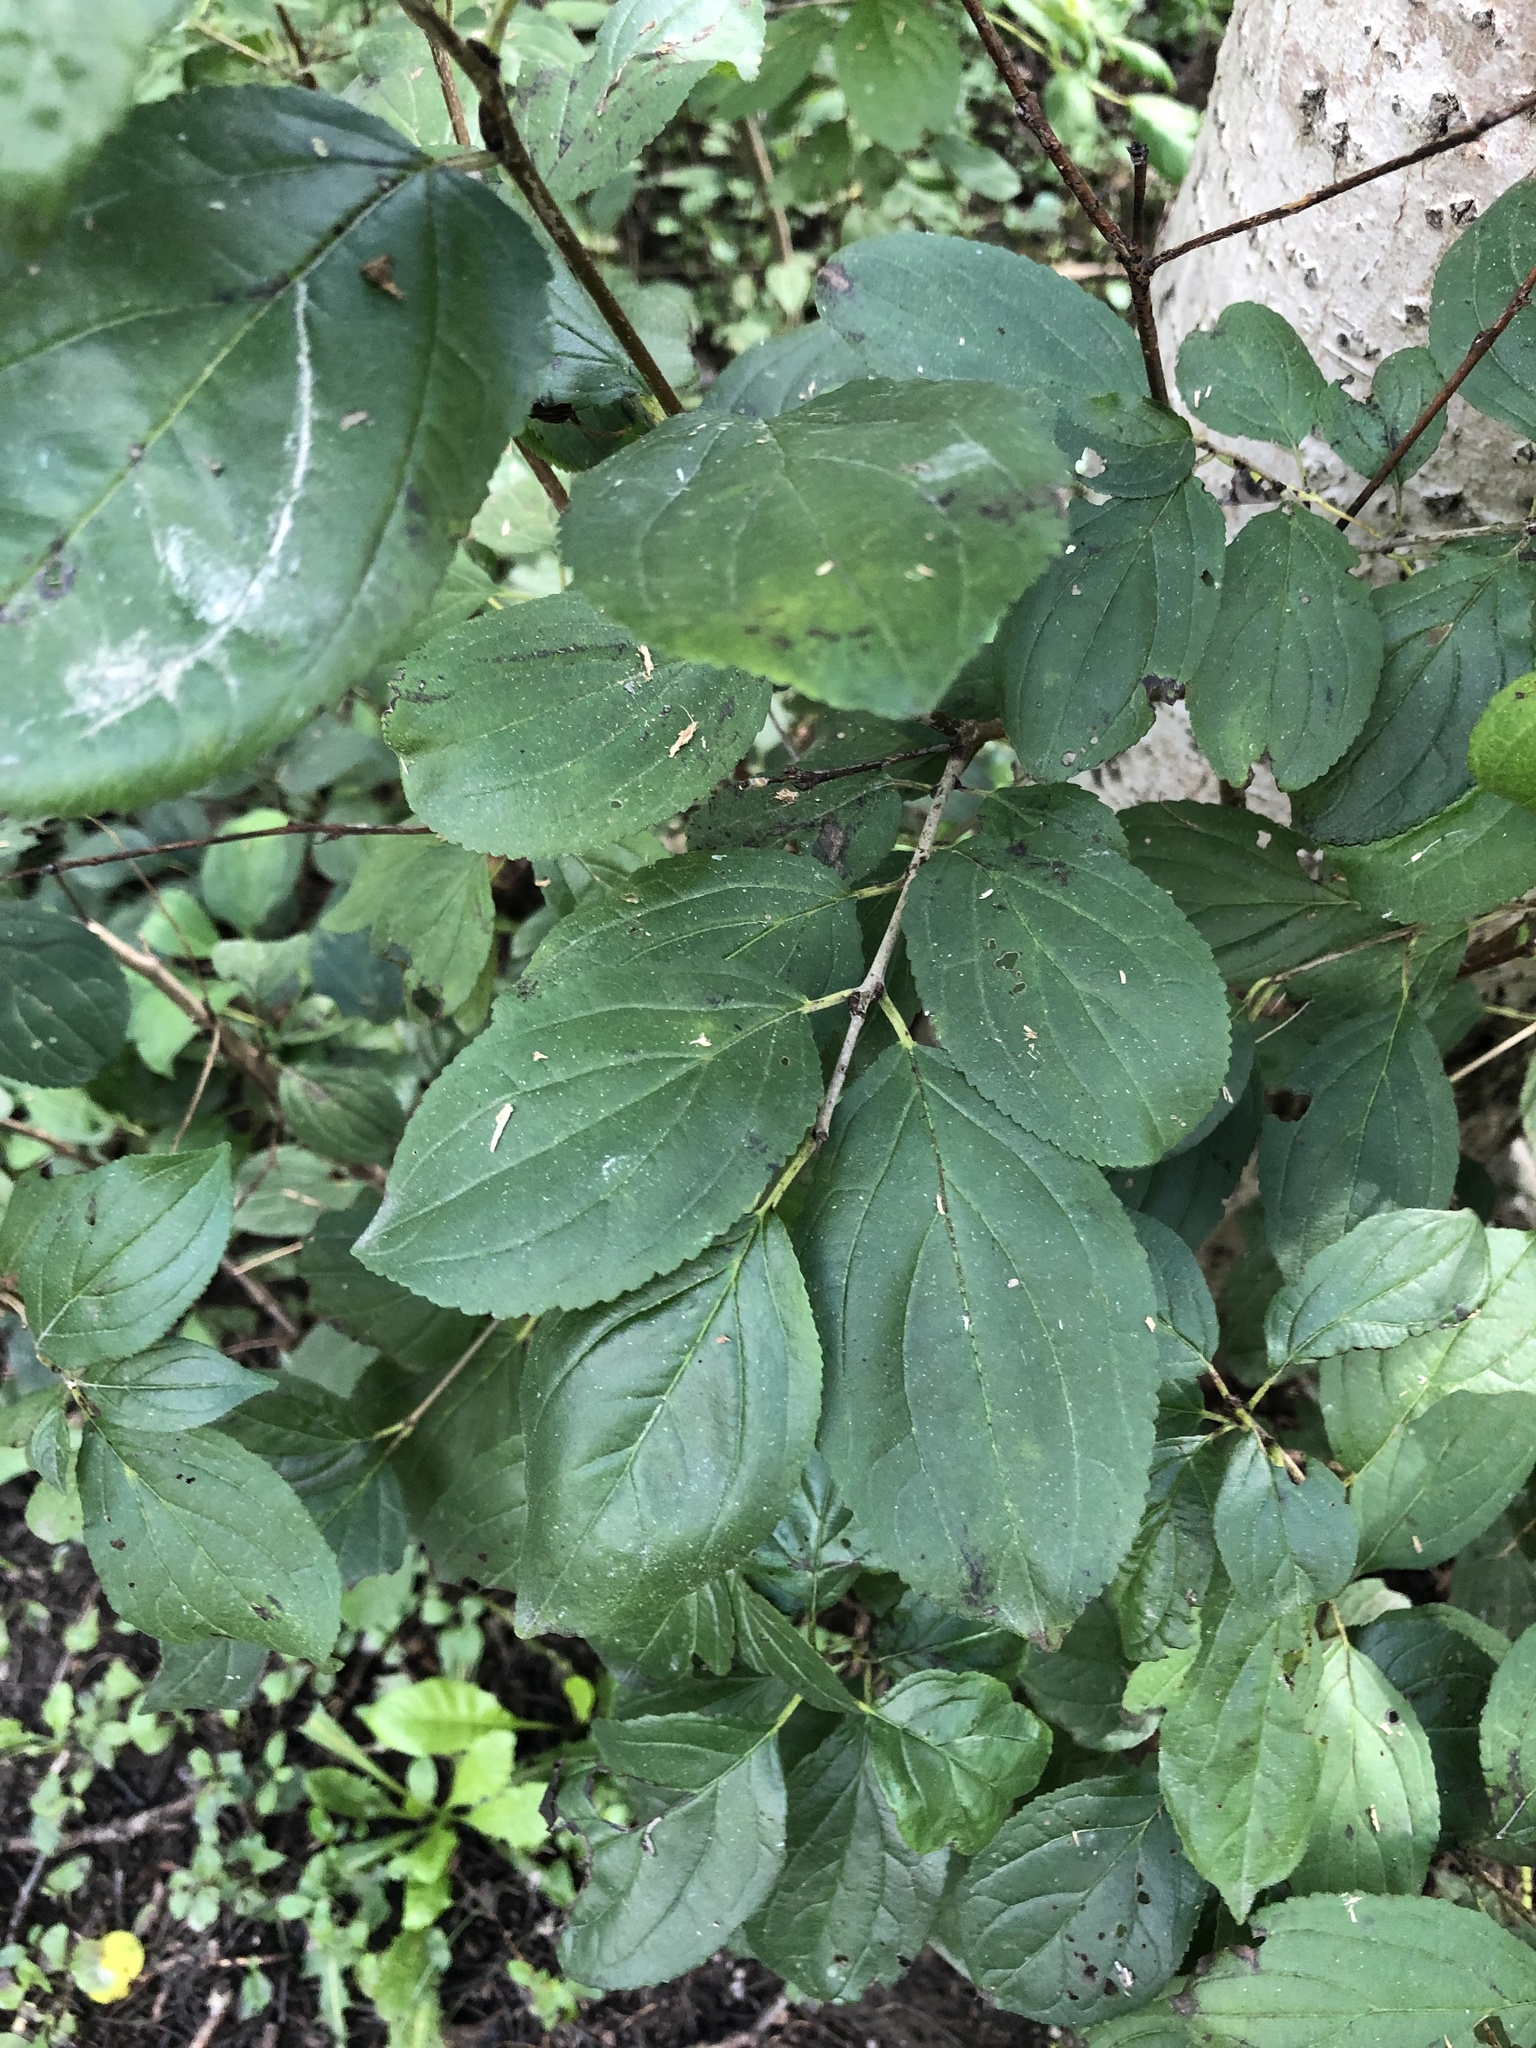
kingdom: Plantae
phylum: Tracheophyta
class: Magnoliopsida
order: Rosales
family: Rhamnaceae
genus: Rhamnus
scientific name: Rhamnus cathartica
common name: Common buckthorn
